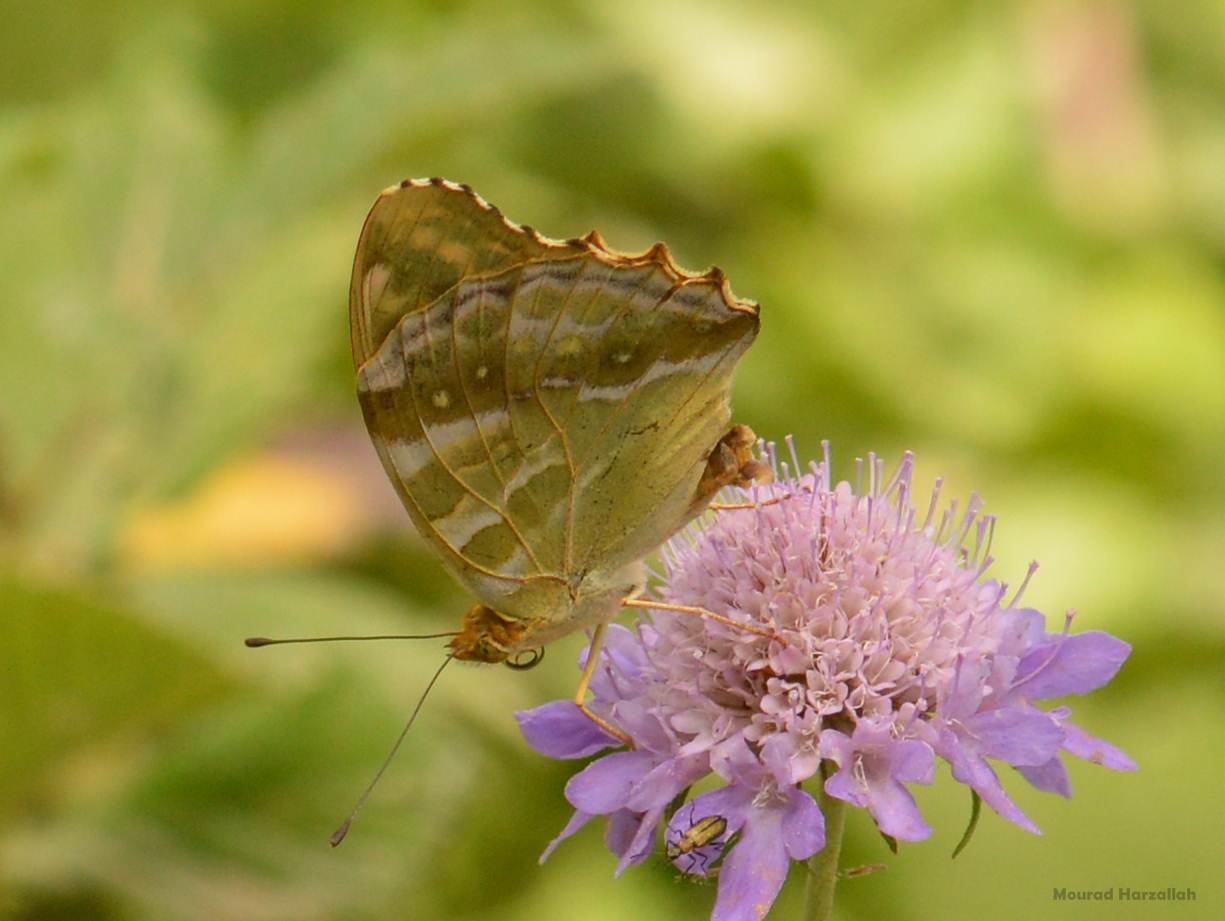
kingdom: Animalia
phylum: Arthropoda
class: Insecta
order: Lepidoptera
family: Nymphalidae
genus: Argynnis
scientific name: Argynnis paphia
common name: Silver-washed fritillary
